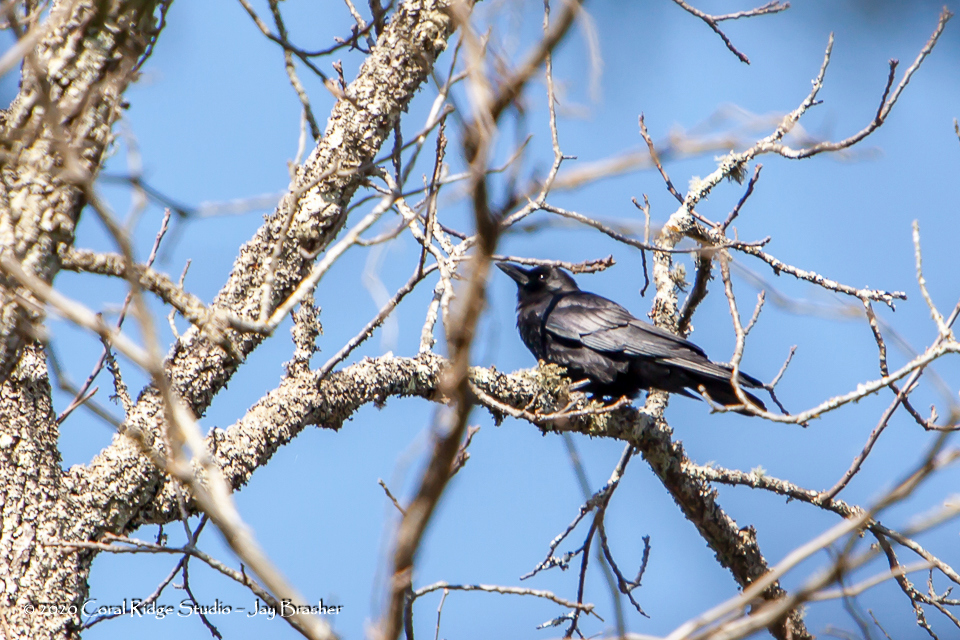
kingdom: Animalia
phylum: Chordata
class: Aves
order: Passeriformes
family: Corvidae
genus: Corvus
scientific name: Corvus brachyrhynchos
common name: American crow
